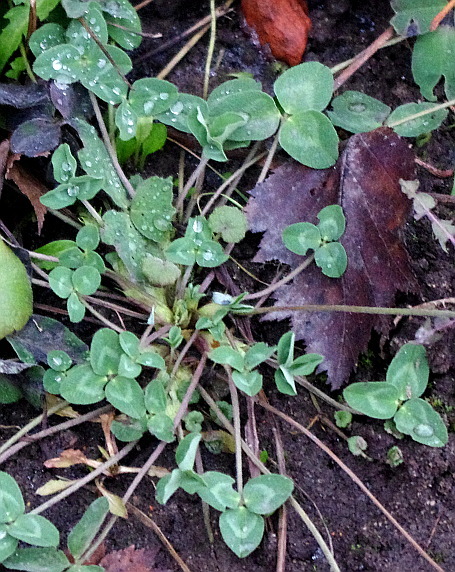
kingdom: Plantae
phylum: Tracheophyta
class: Magnoliopsida
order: Fabales
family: Fabaceae
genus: Trifolium
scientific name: Trifolium pratense
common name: Red clover
